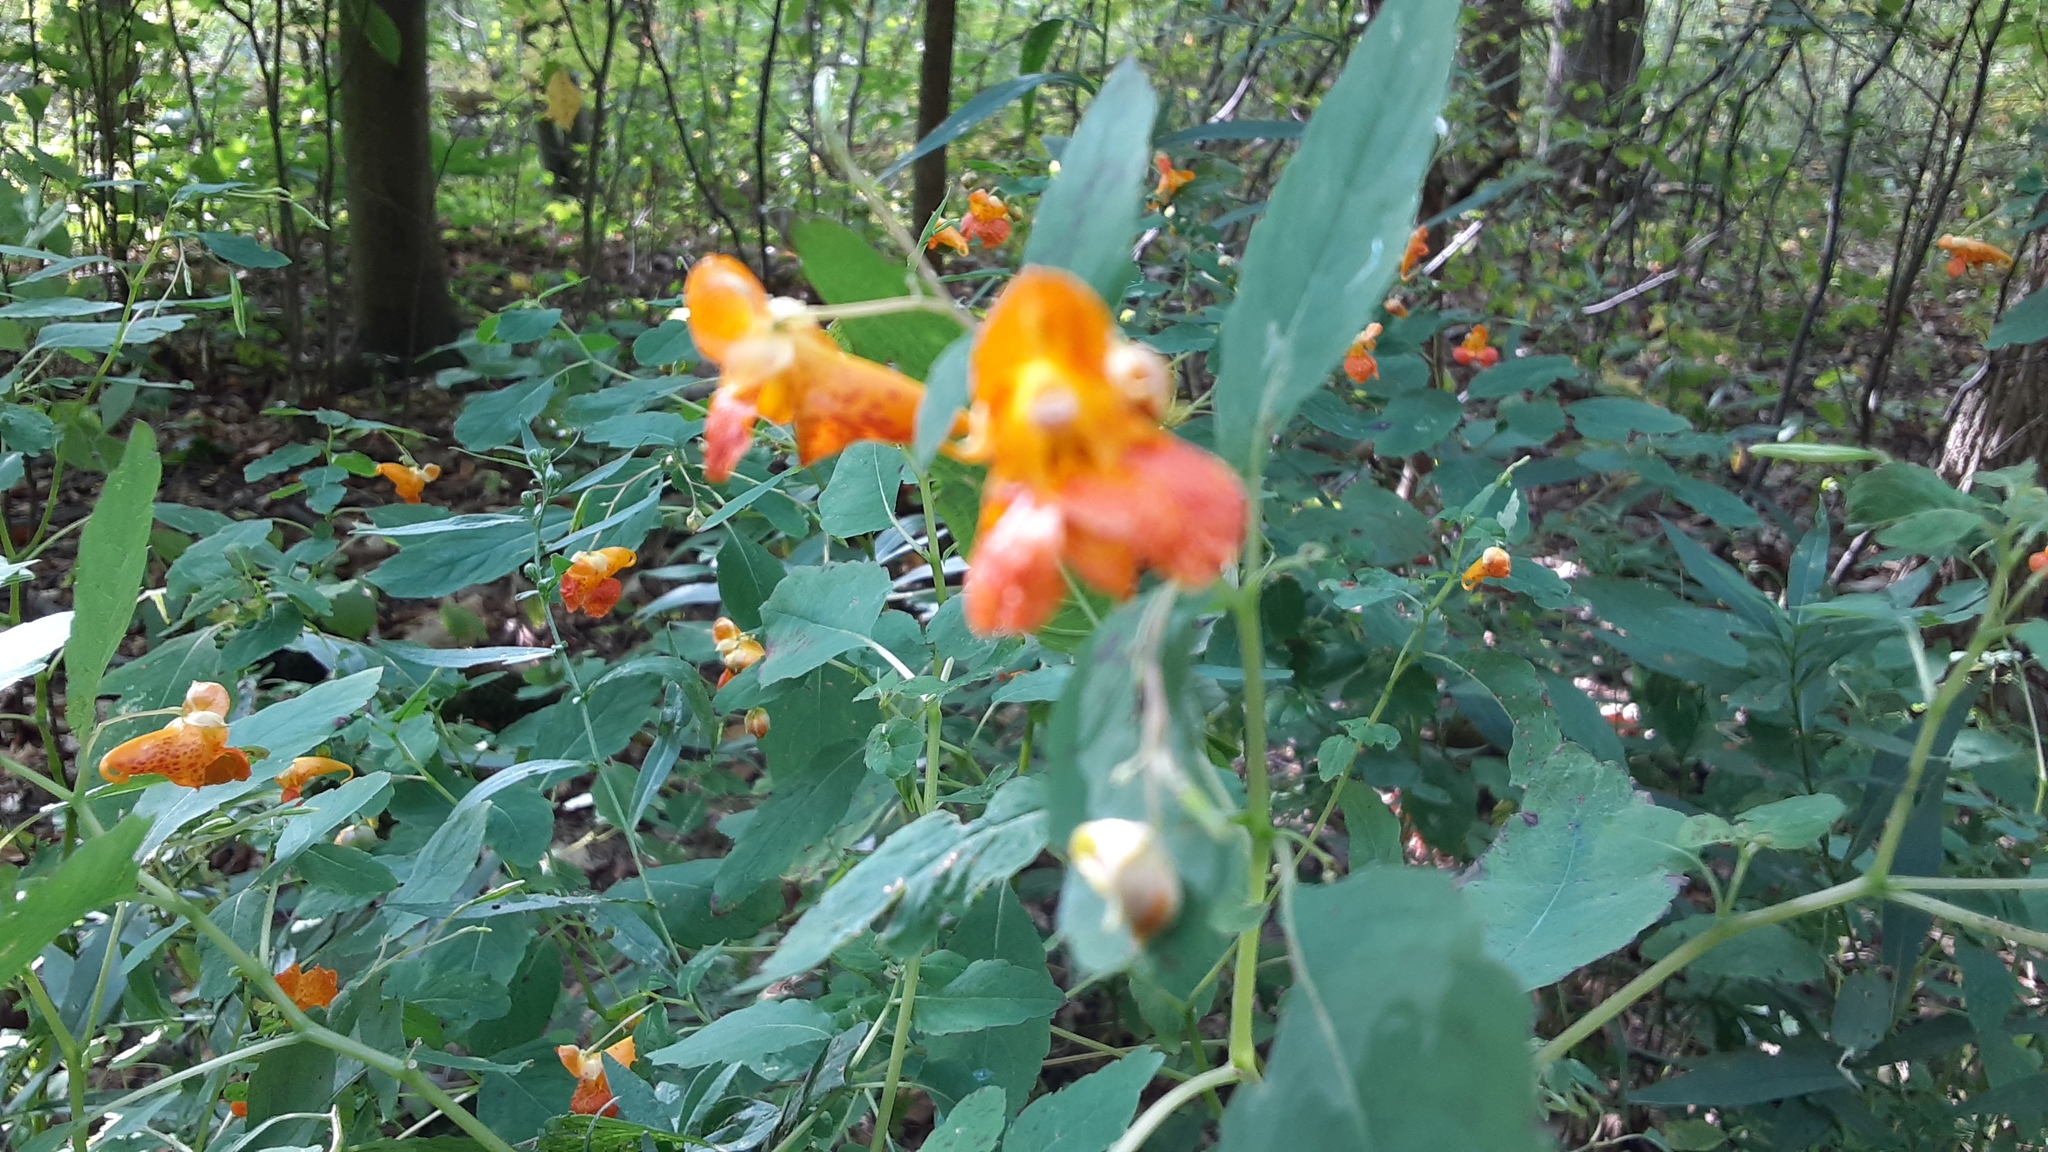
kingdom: Plantae
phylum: Tracheophyta
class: Magnoliopsida
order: Ericales
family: Balsaminaceae
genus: Impatiens
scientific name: Impatiens capensis
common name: Orange balsam
